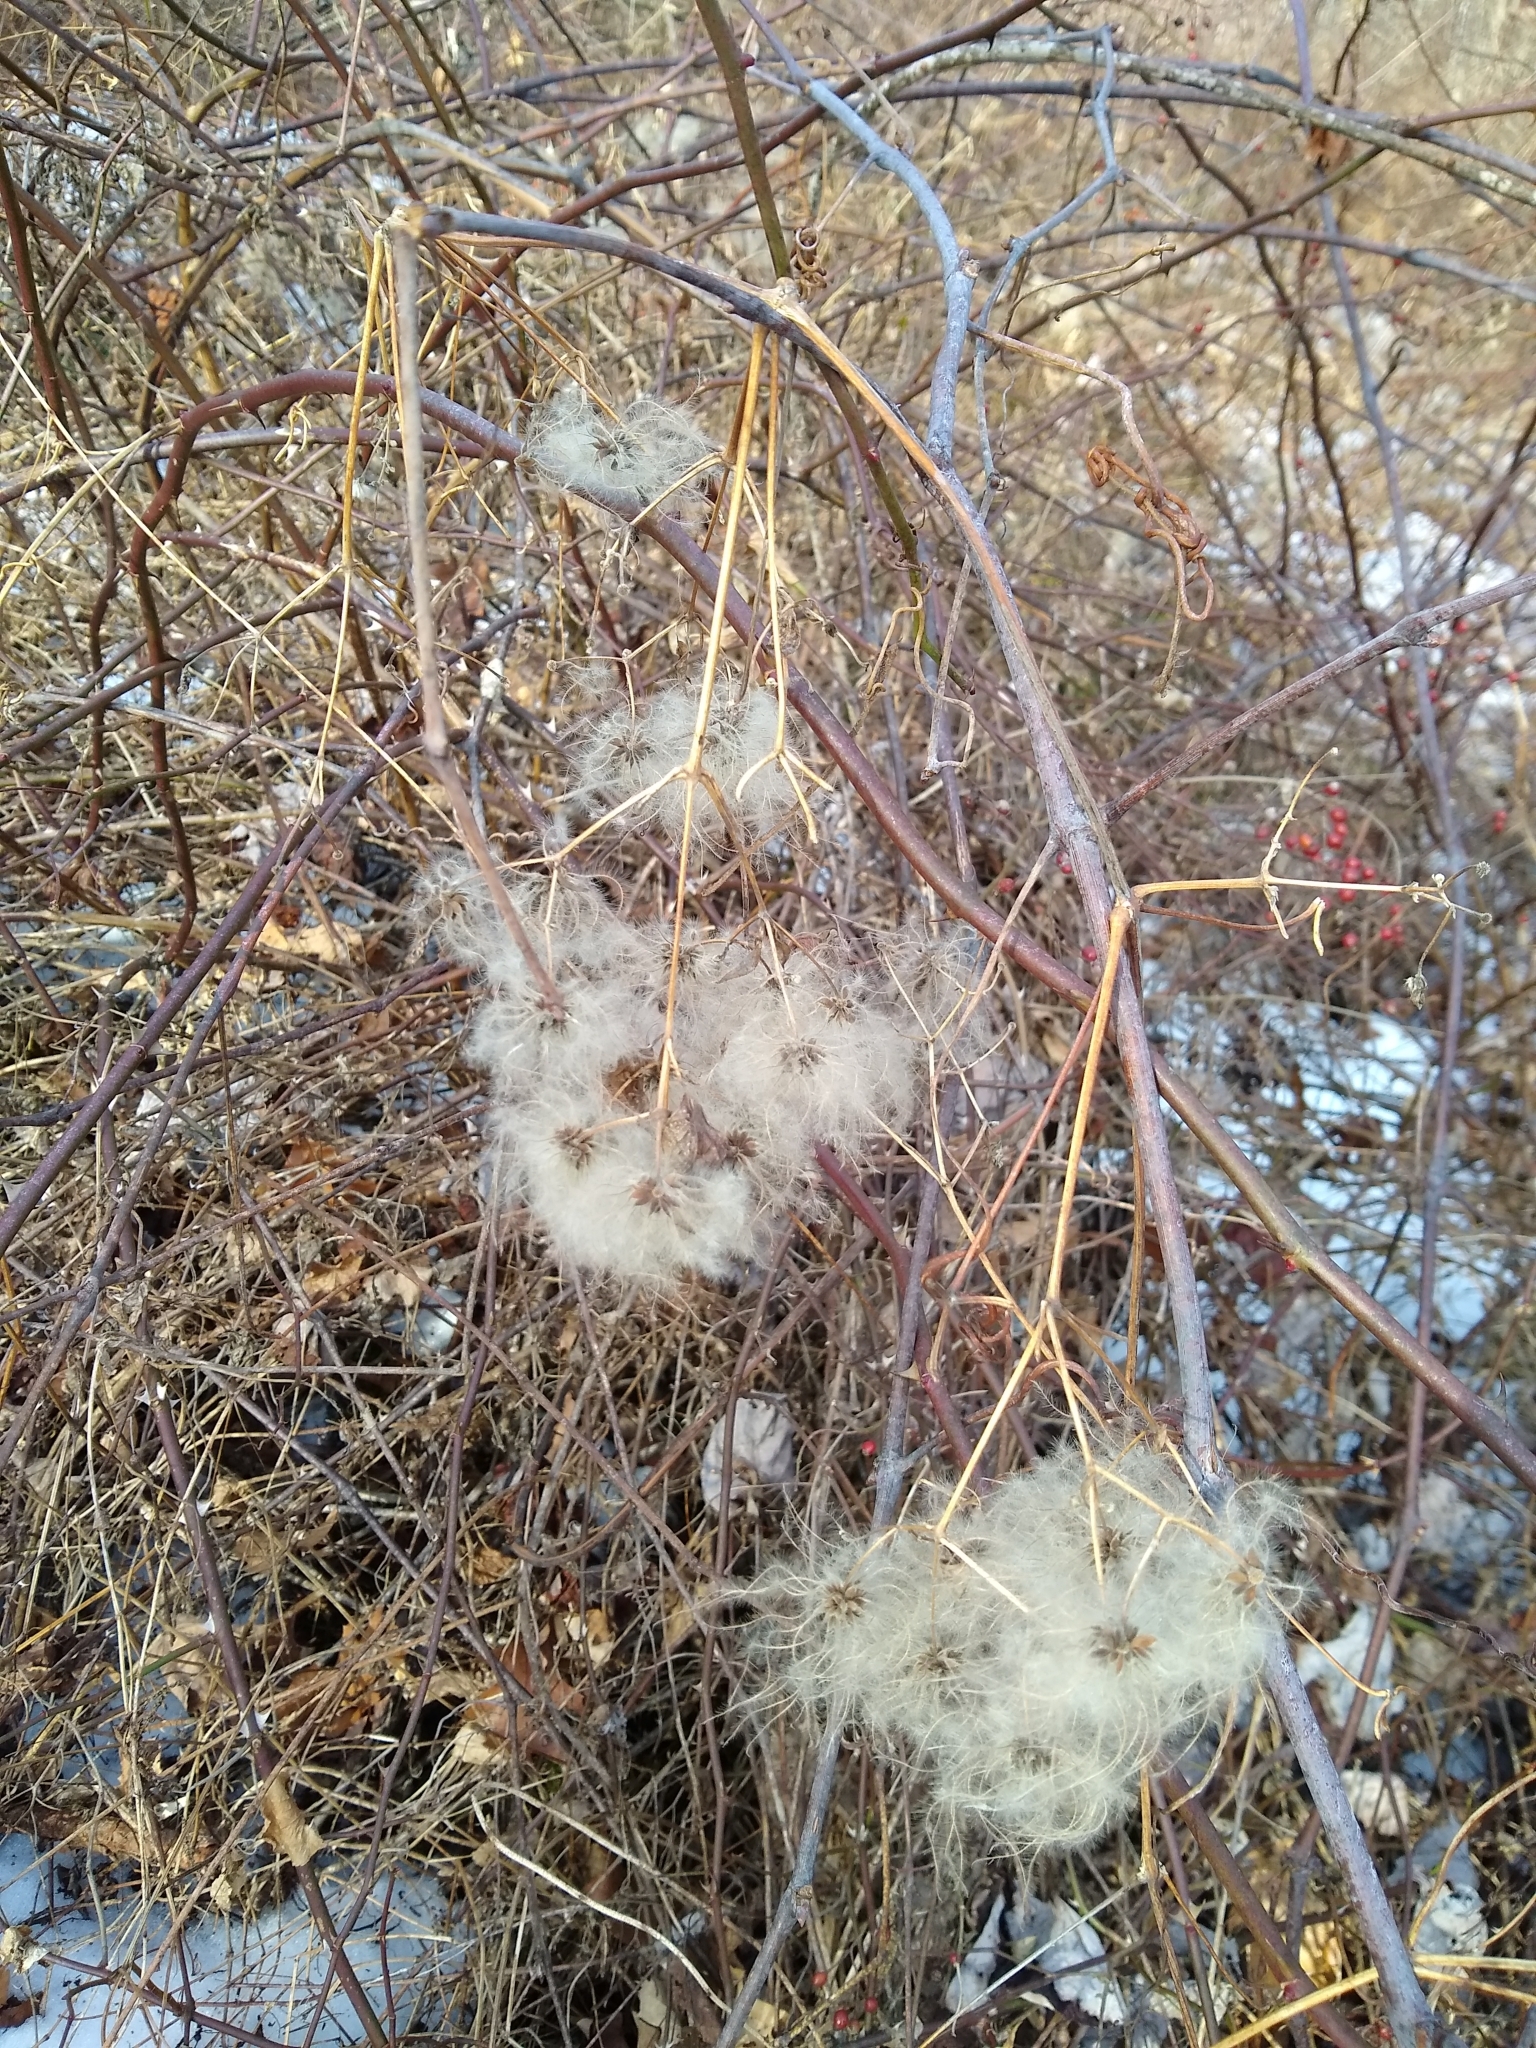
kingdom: Plantae
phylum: Tracheophyta
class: Magnoliopsida
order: Ranunculales
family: Ranunculaceae
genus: Clematis
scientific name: Clematis virginiana
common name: Virgin's-bower
